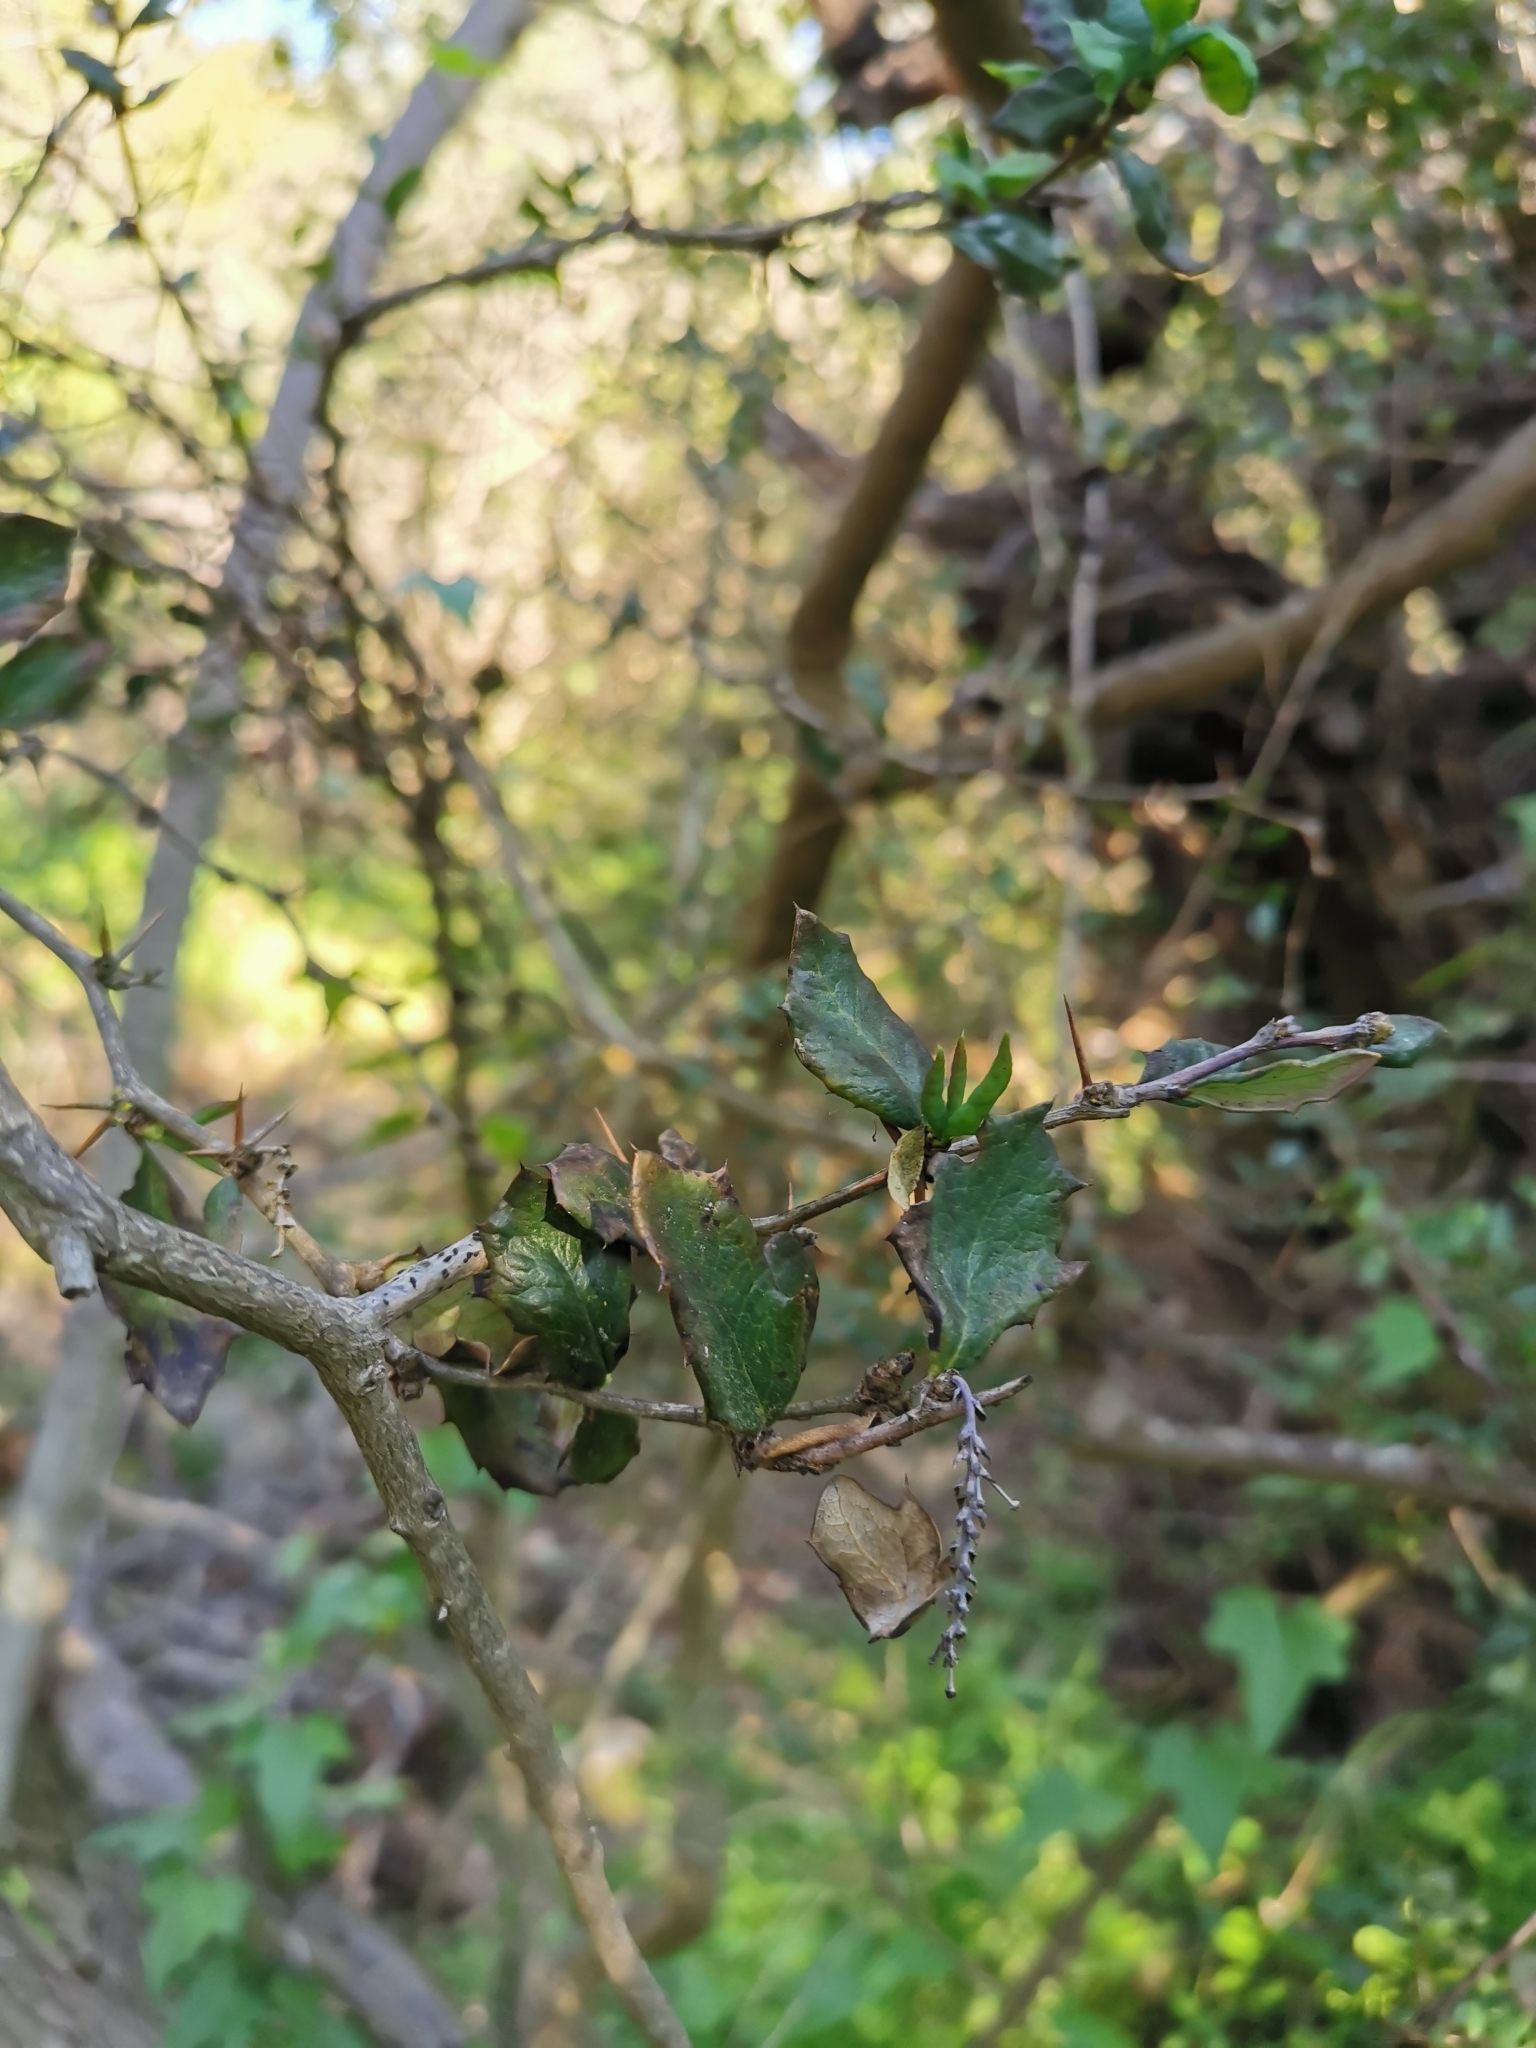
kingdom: Plantae
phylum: Tracheophyta
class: Magnoliopsida
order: Ranunculales
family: Berberidaceae
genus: Berberis
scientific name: Berberis chilensis
